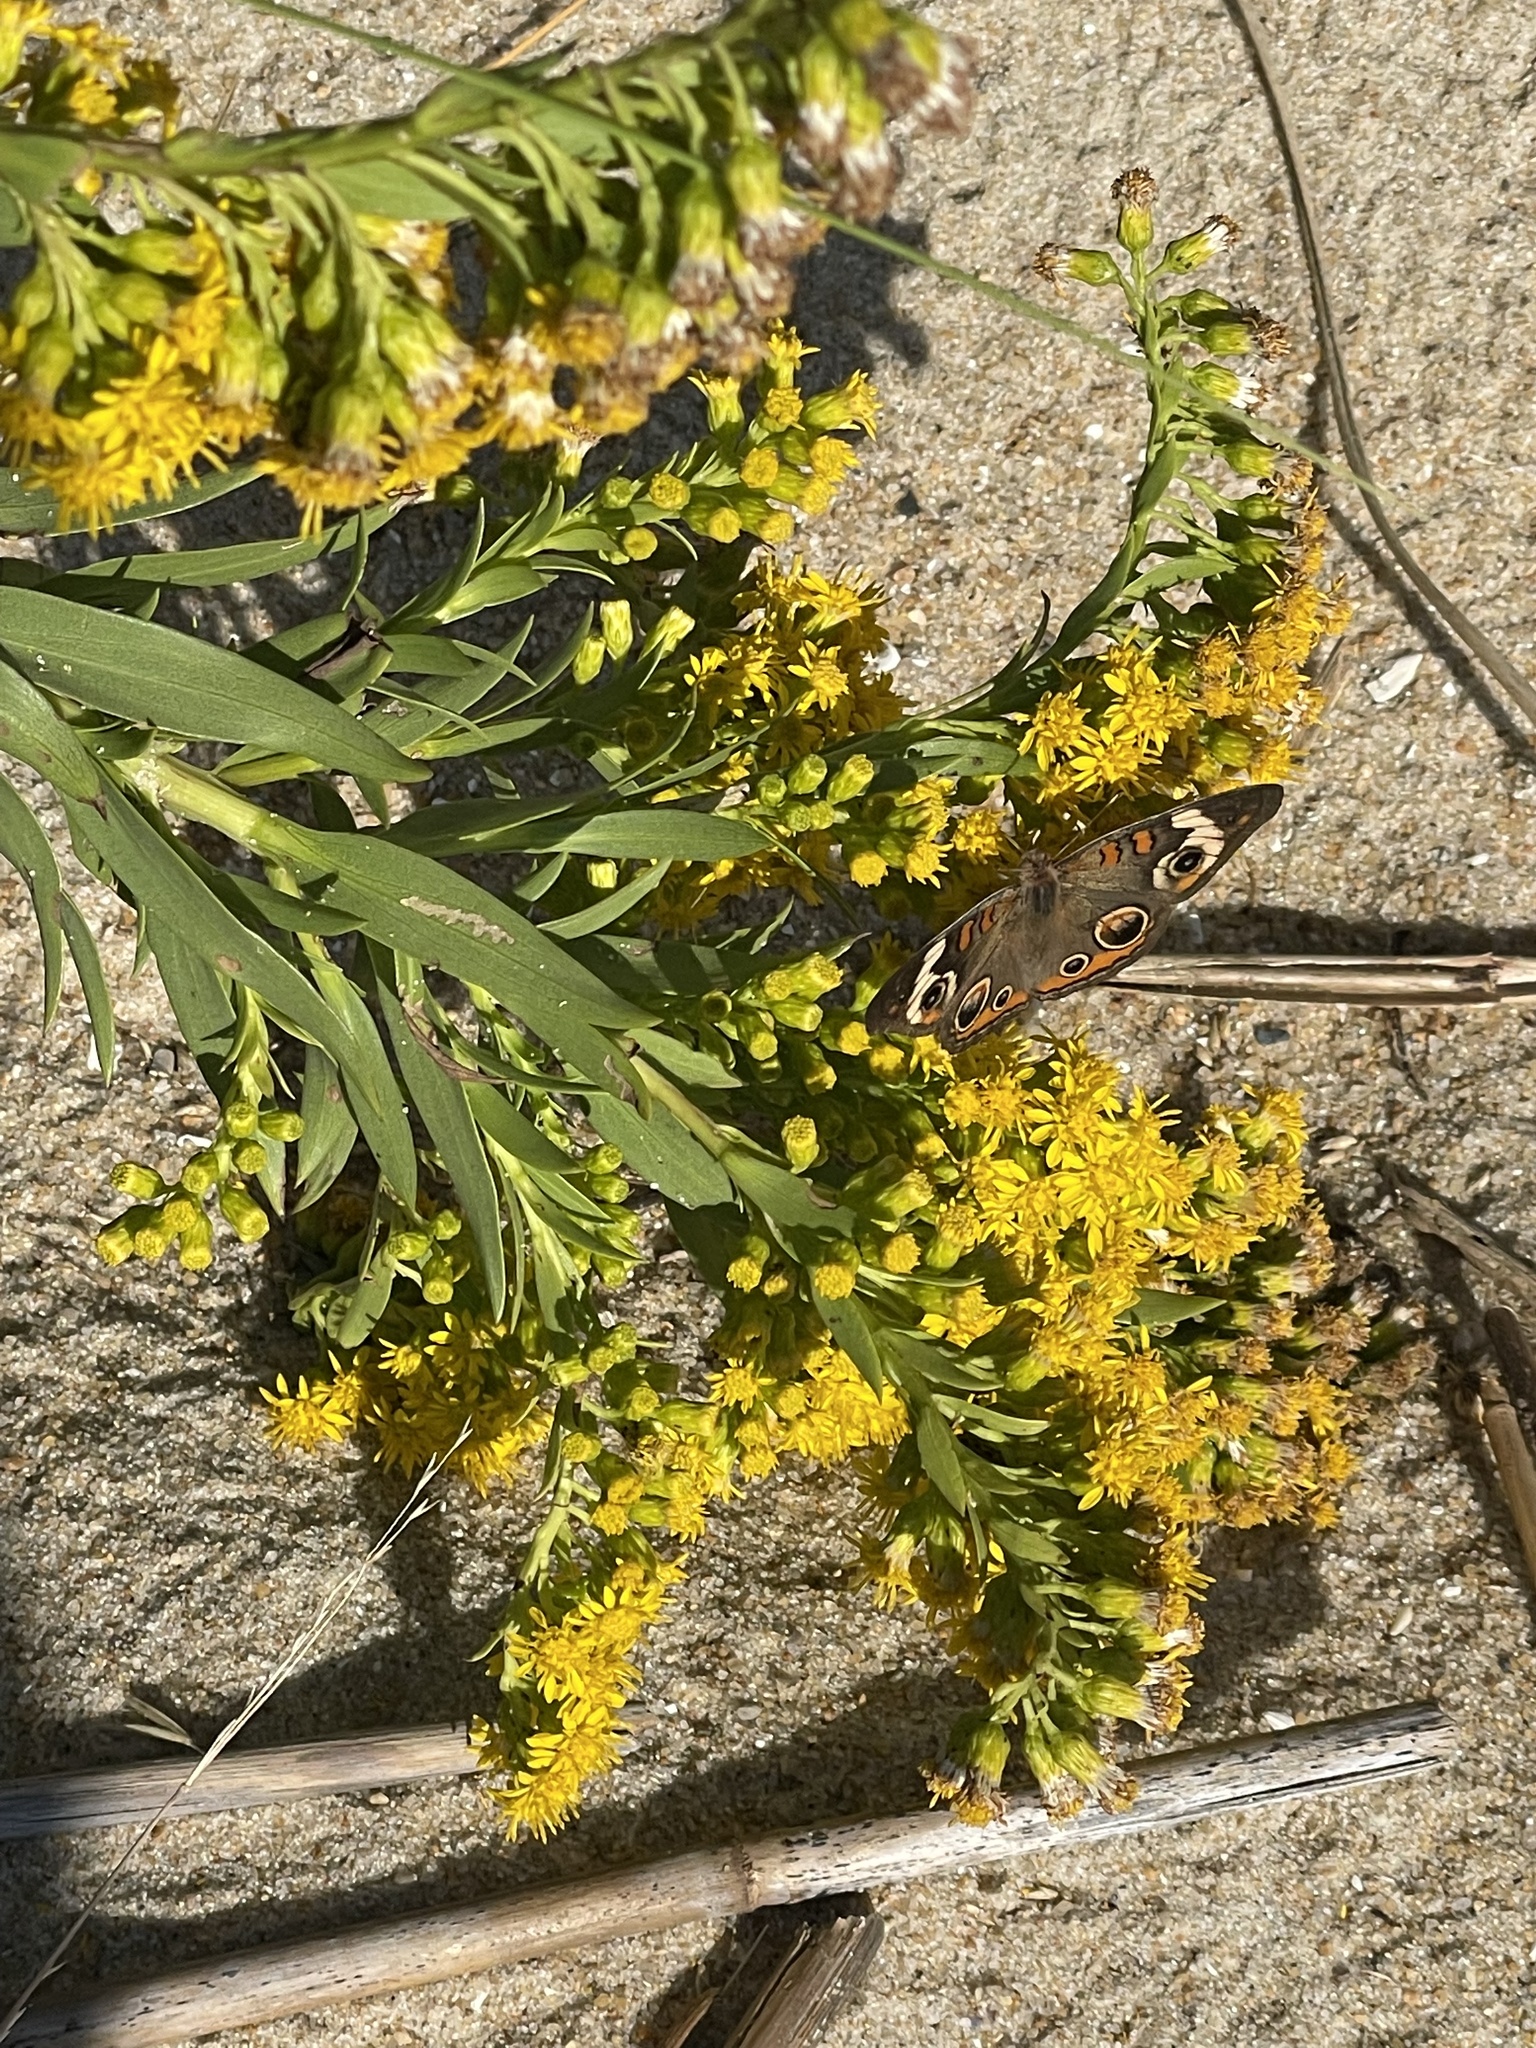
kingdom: Animalia
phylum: Arthropoda
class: Insecta
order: Lepidoptera
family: Nymphalidae
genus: Junonia
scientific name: Junonia coenia
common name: Common buckeye
